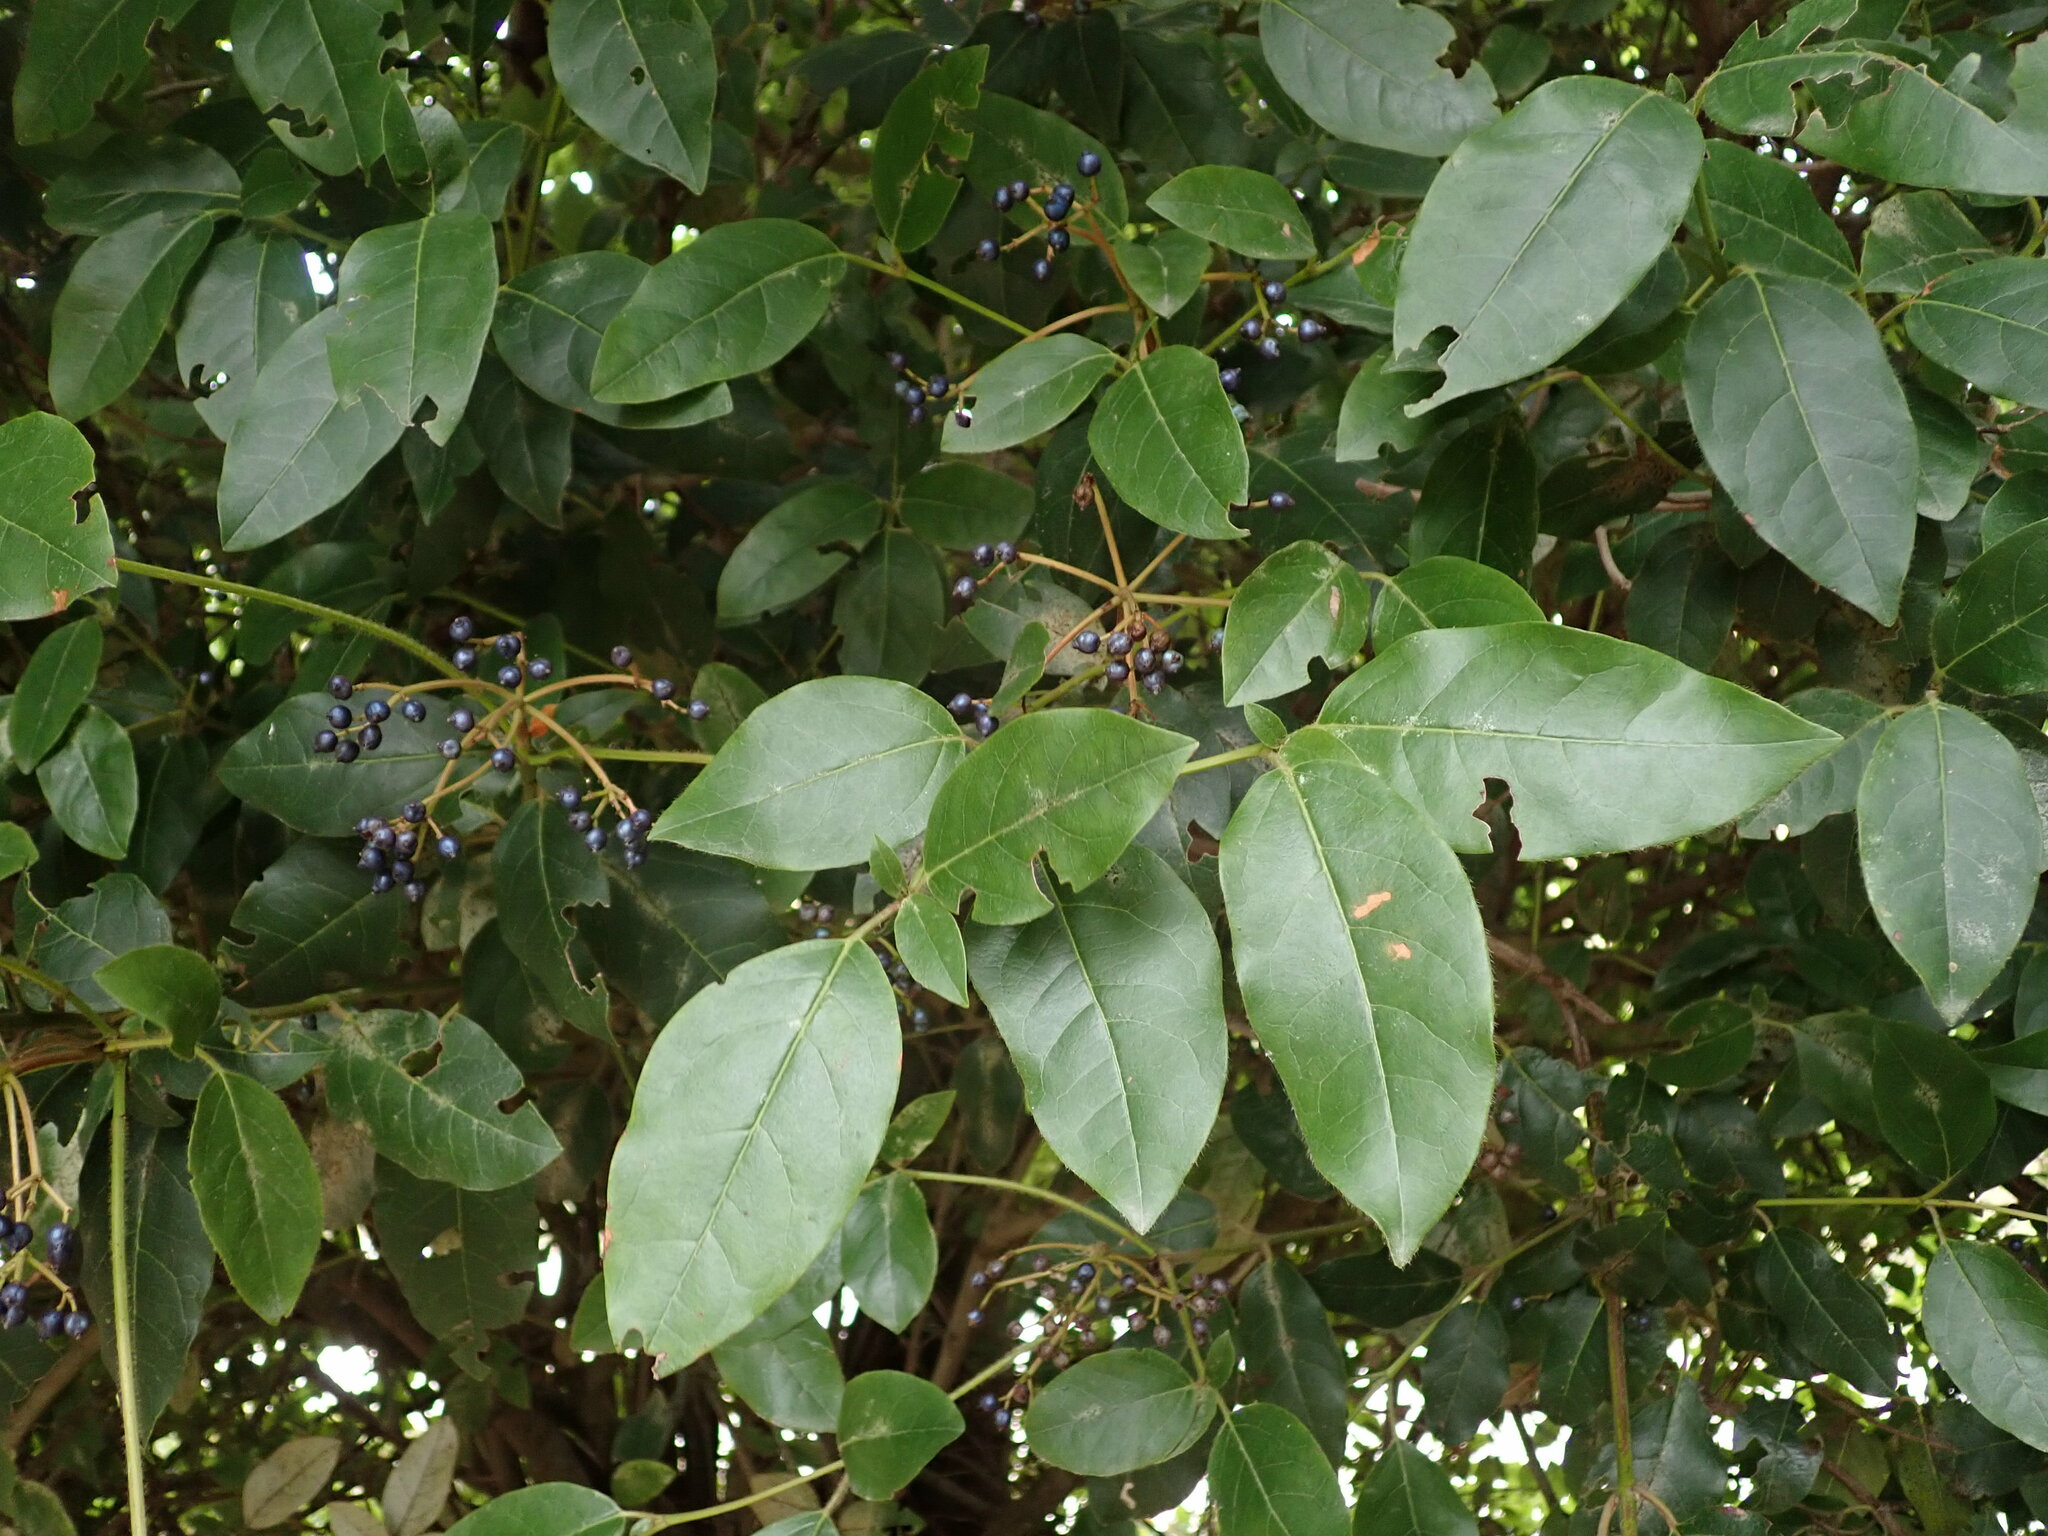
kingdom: Plantae
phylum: Tracheophyta
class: Magnoliopsida
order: Dipsacales
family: Viburnaceae
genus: Viburnum
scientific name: Viburnum tinus
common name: Laurustinus
